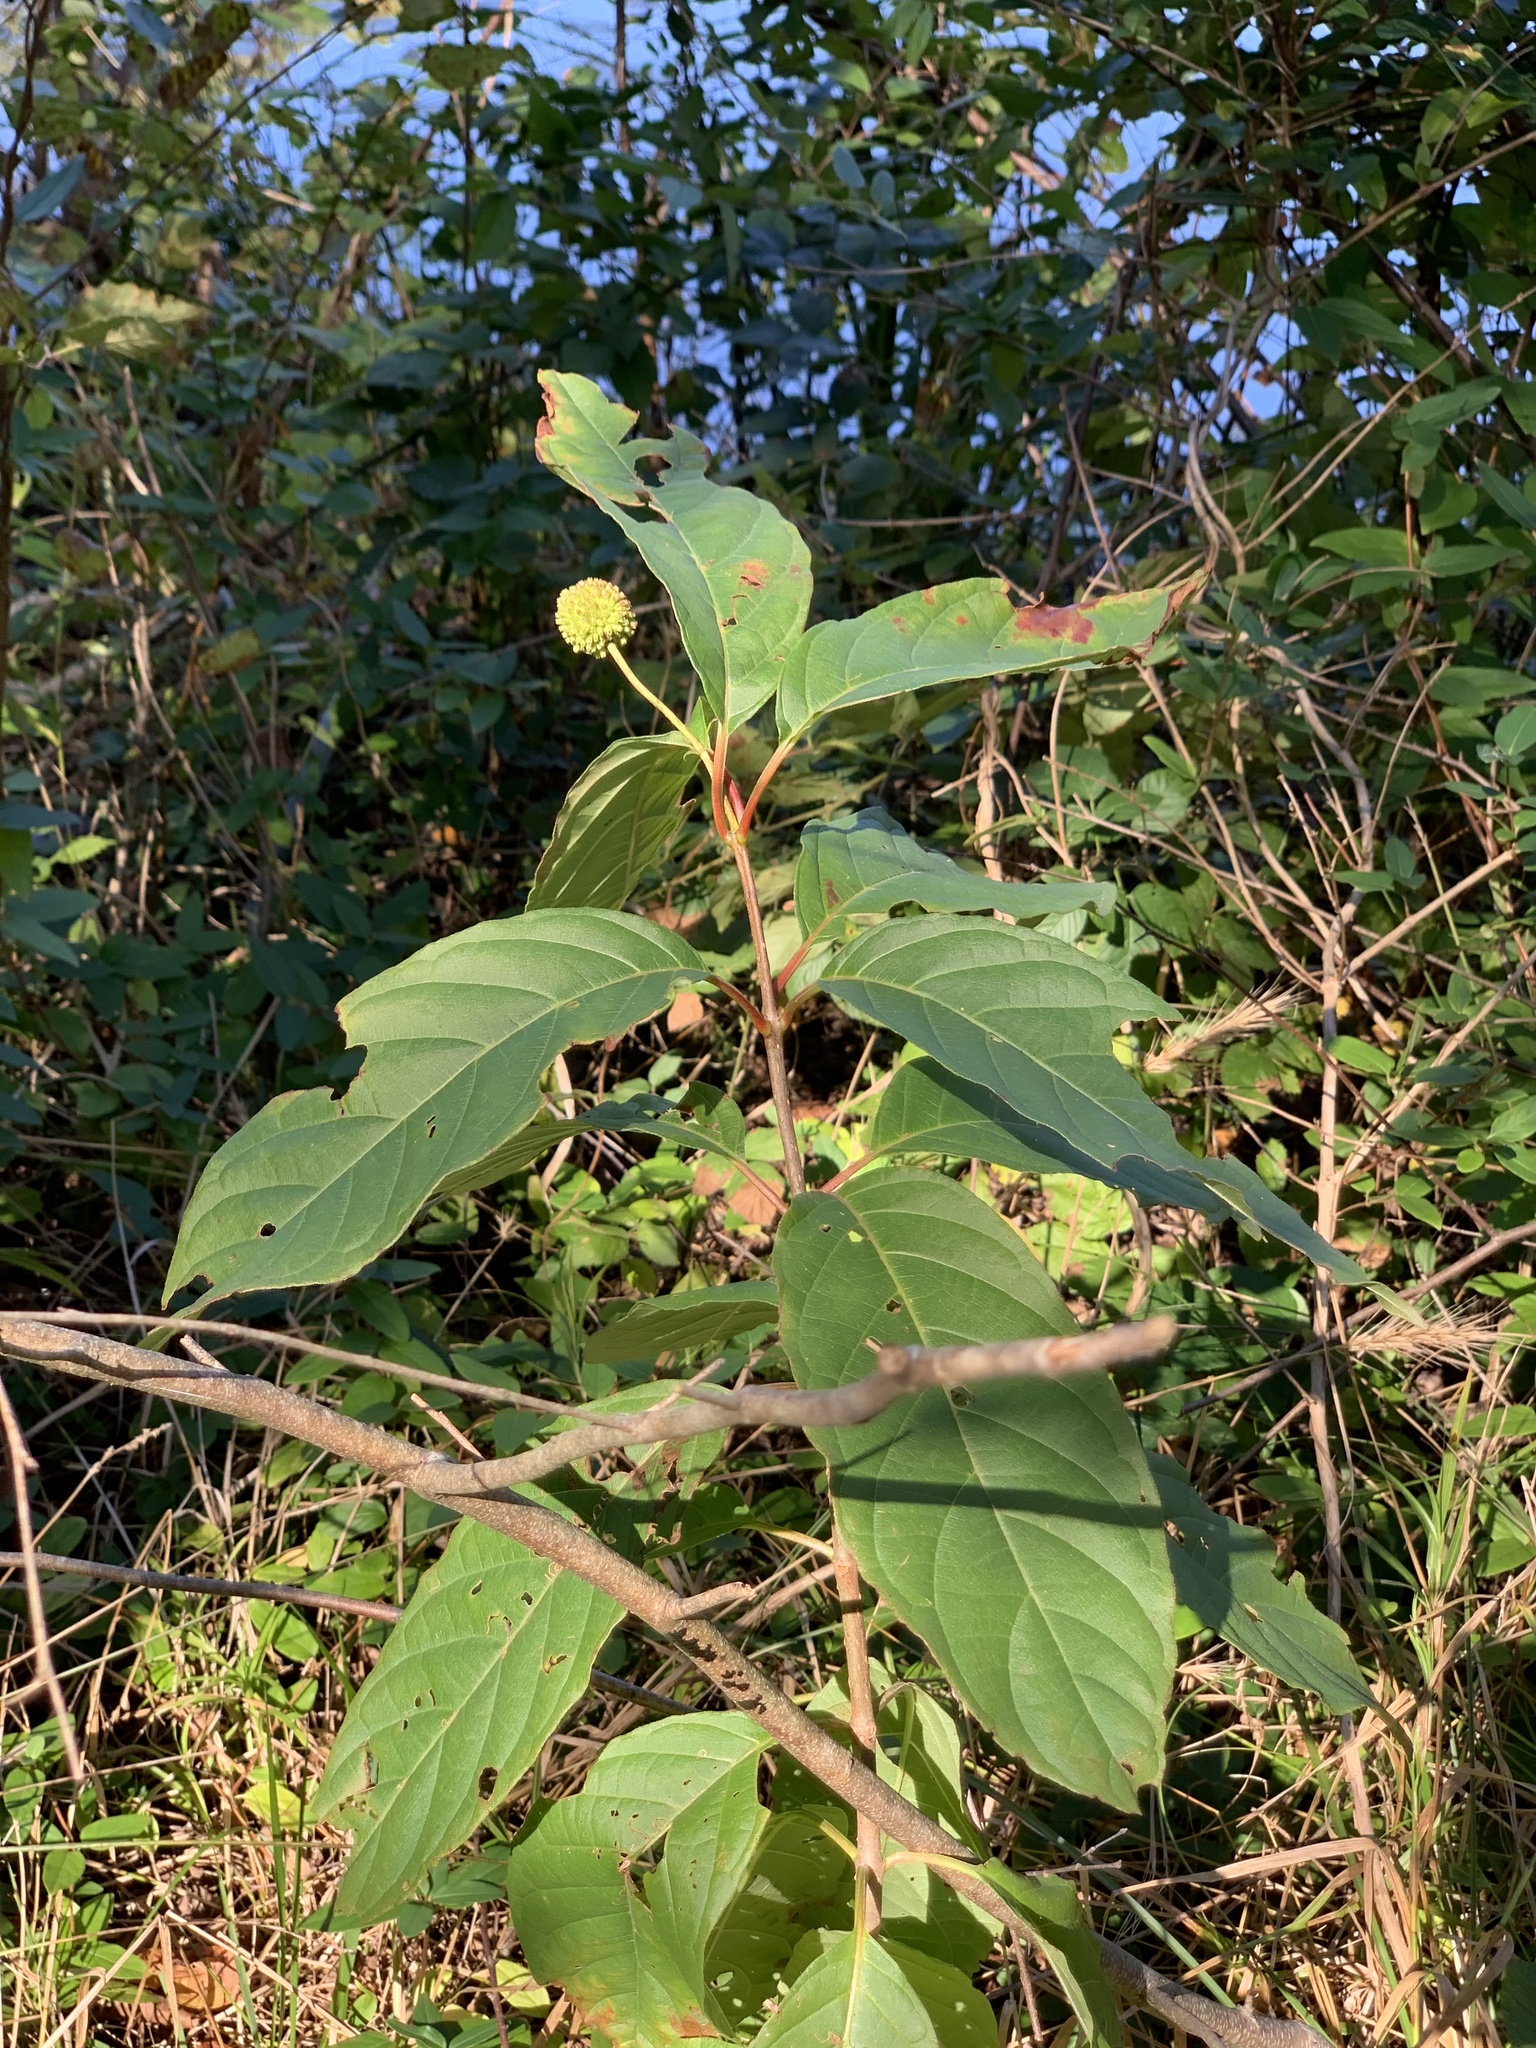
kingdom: Plantae
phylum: Tracheophyta
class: Magnoliopsida
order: Gentianales
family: Rubiaceae
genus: Cephalanthus
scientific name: Cephalanthus occidentalis
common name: Button-willow
